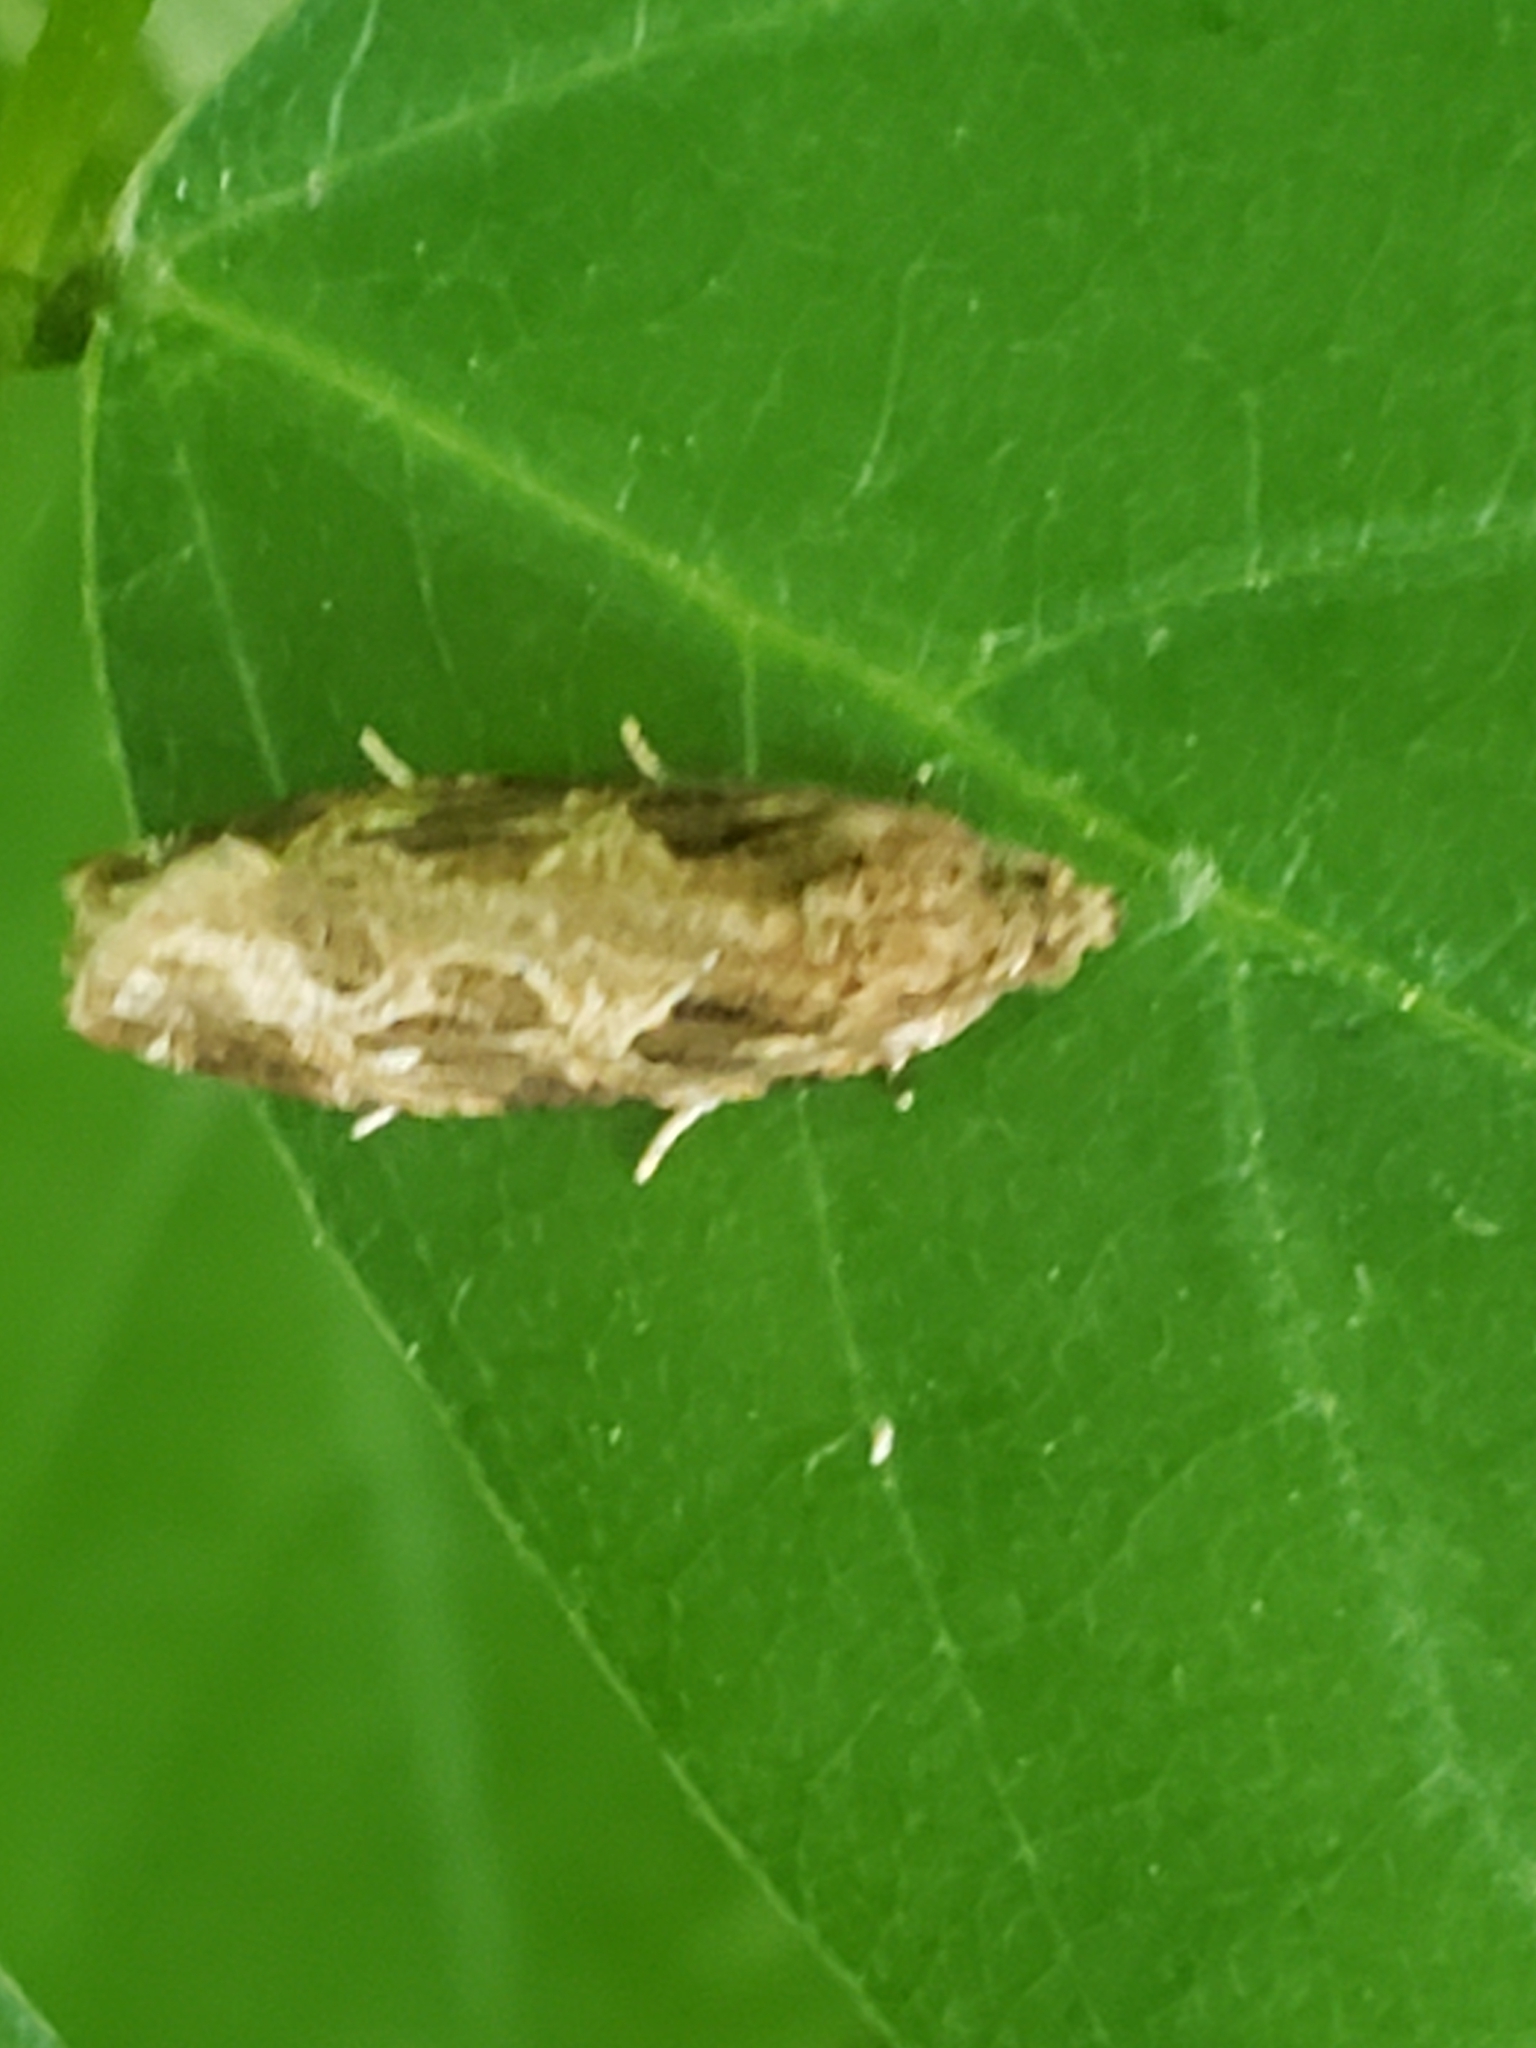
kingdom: Animalia
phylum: Arthropoda
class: Insecta
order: Lepidoptera
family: Tortricidae
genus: Phaecasiophora
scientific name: Phaecasiophora confixana
